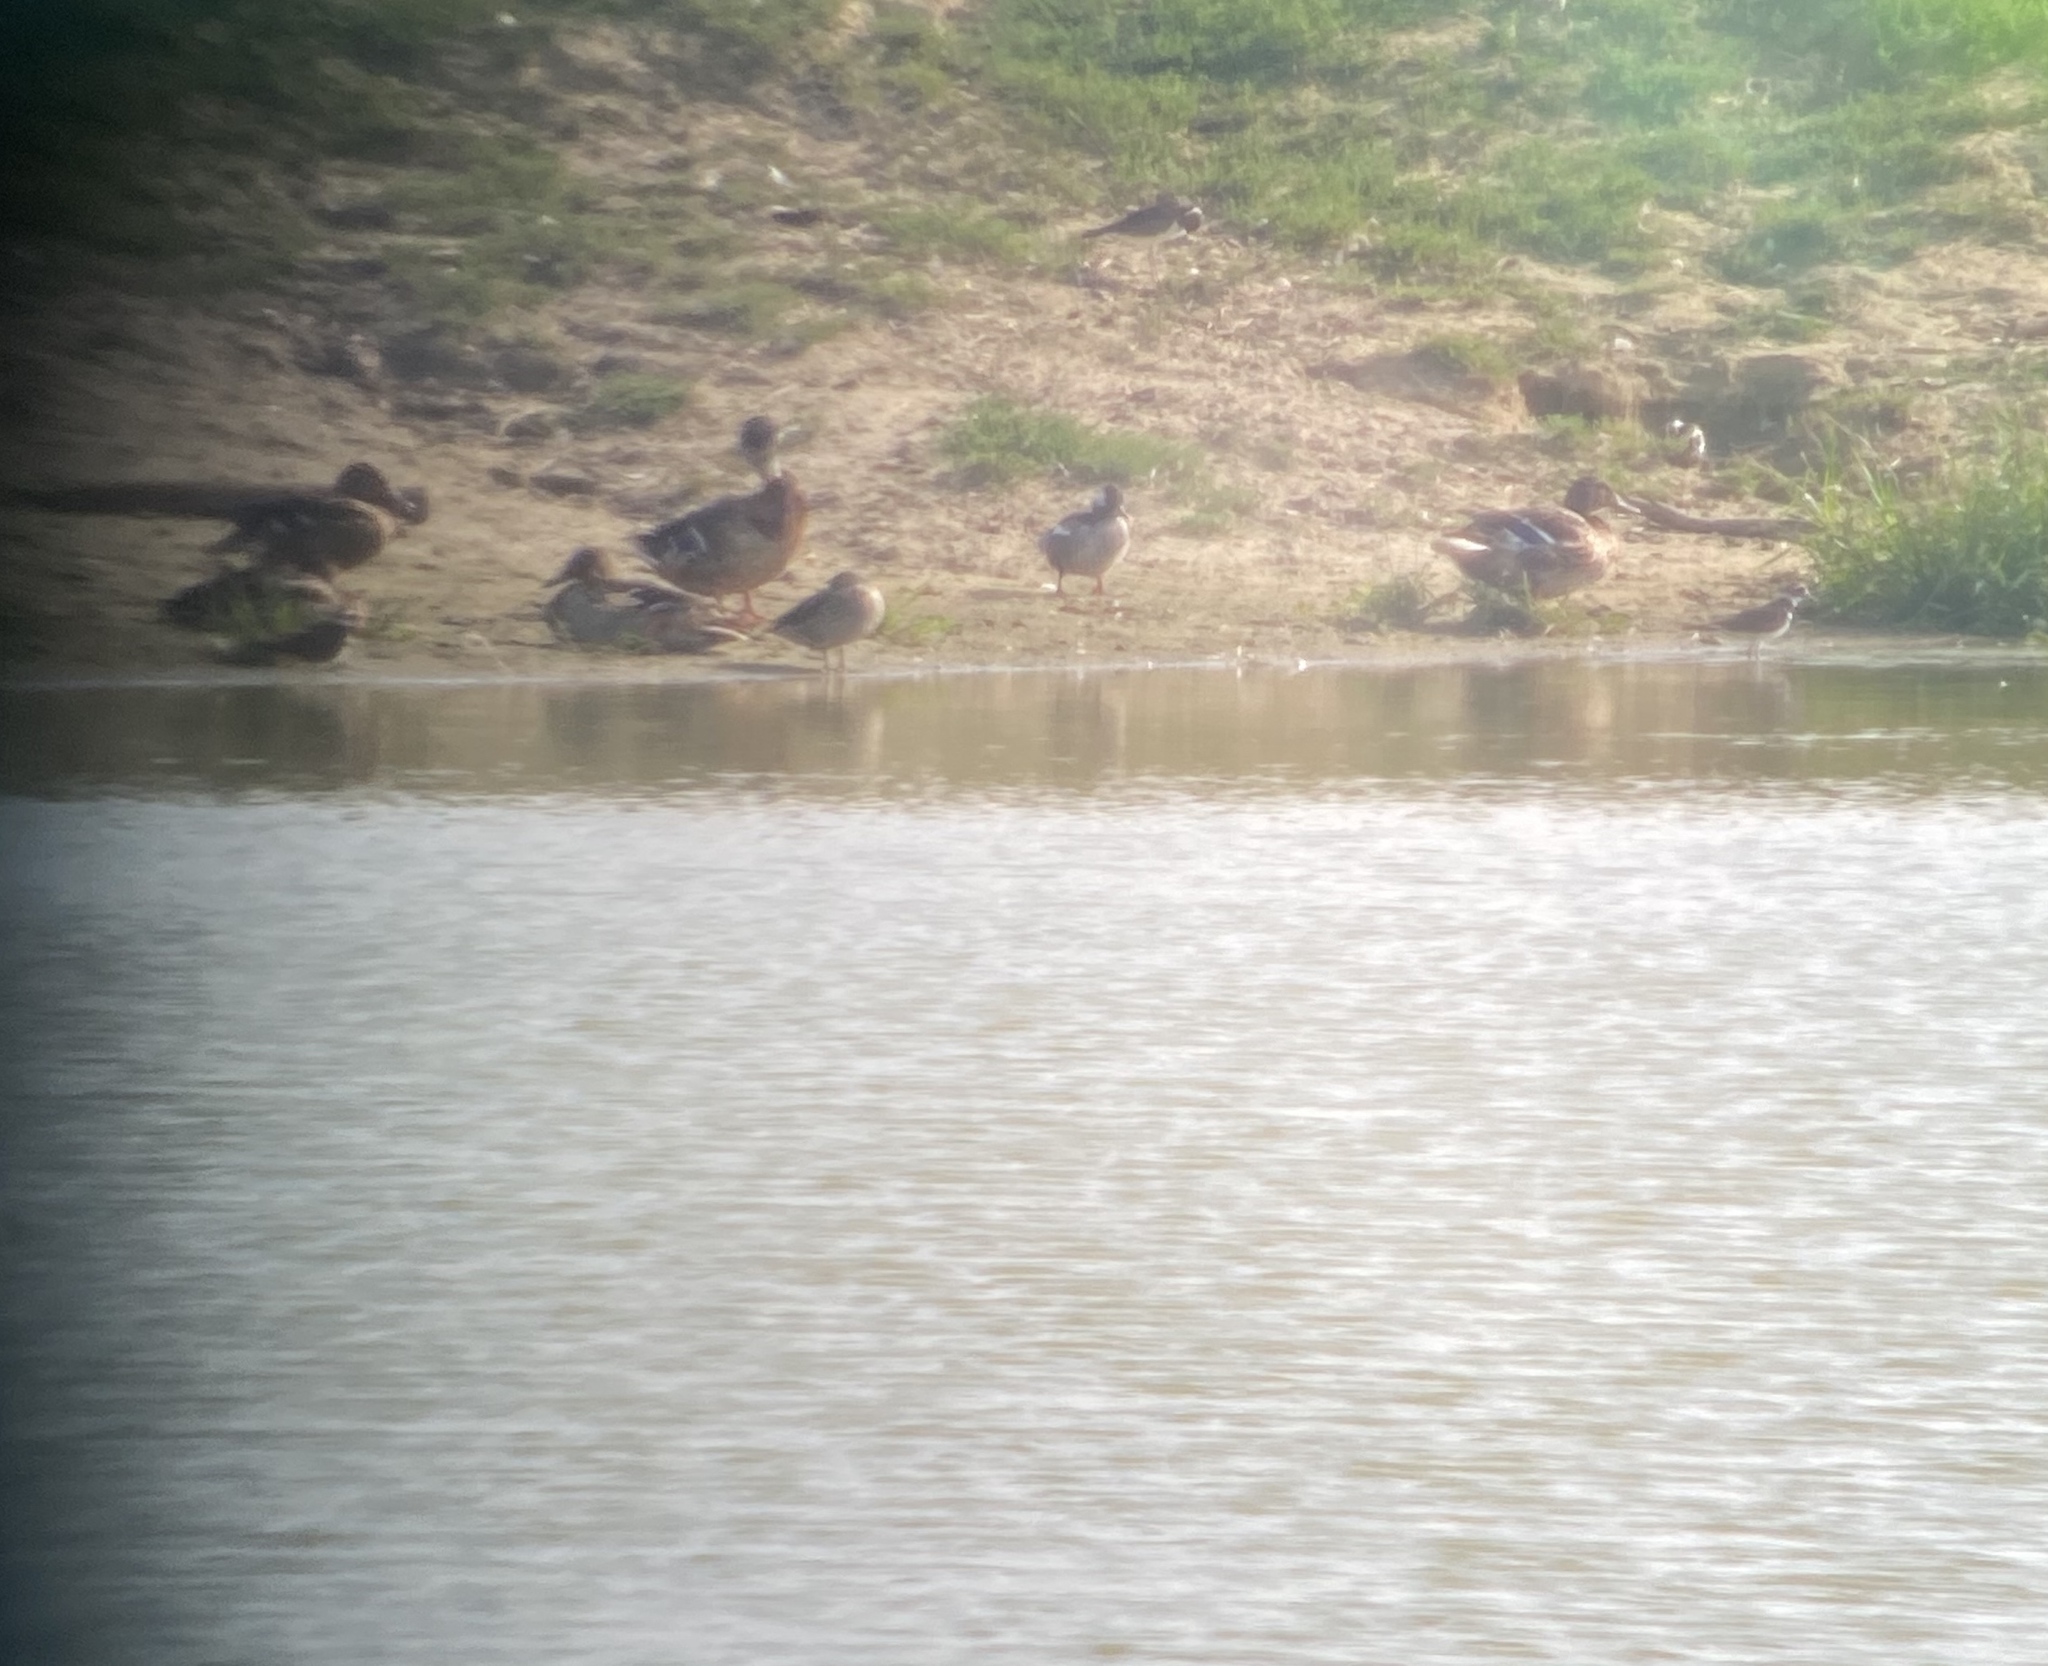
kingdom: Animalia
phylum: Chordata
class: Aves
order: Anseriformes
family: Anatidae
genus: Bucephala
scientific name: Bucephala albeola
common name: Bufflehead
